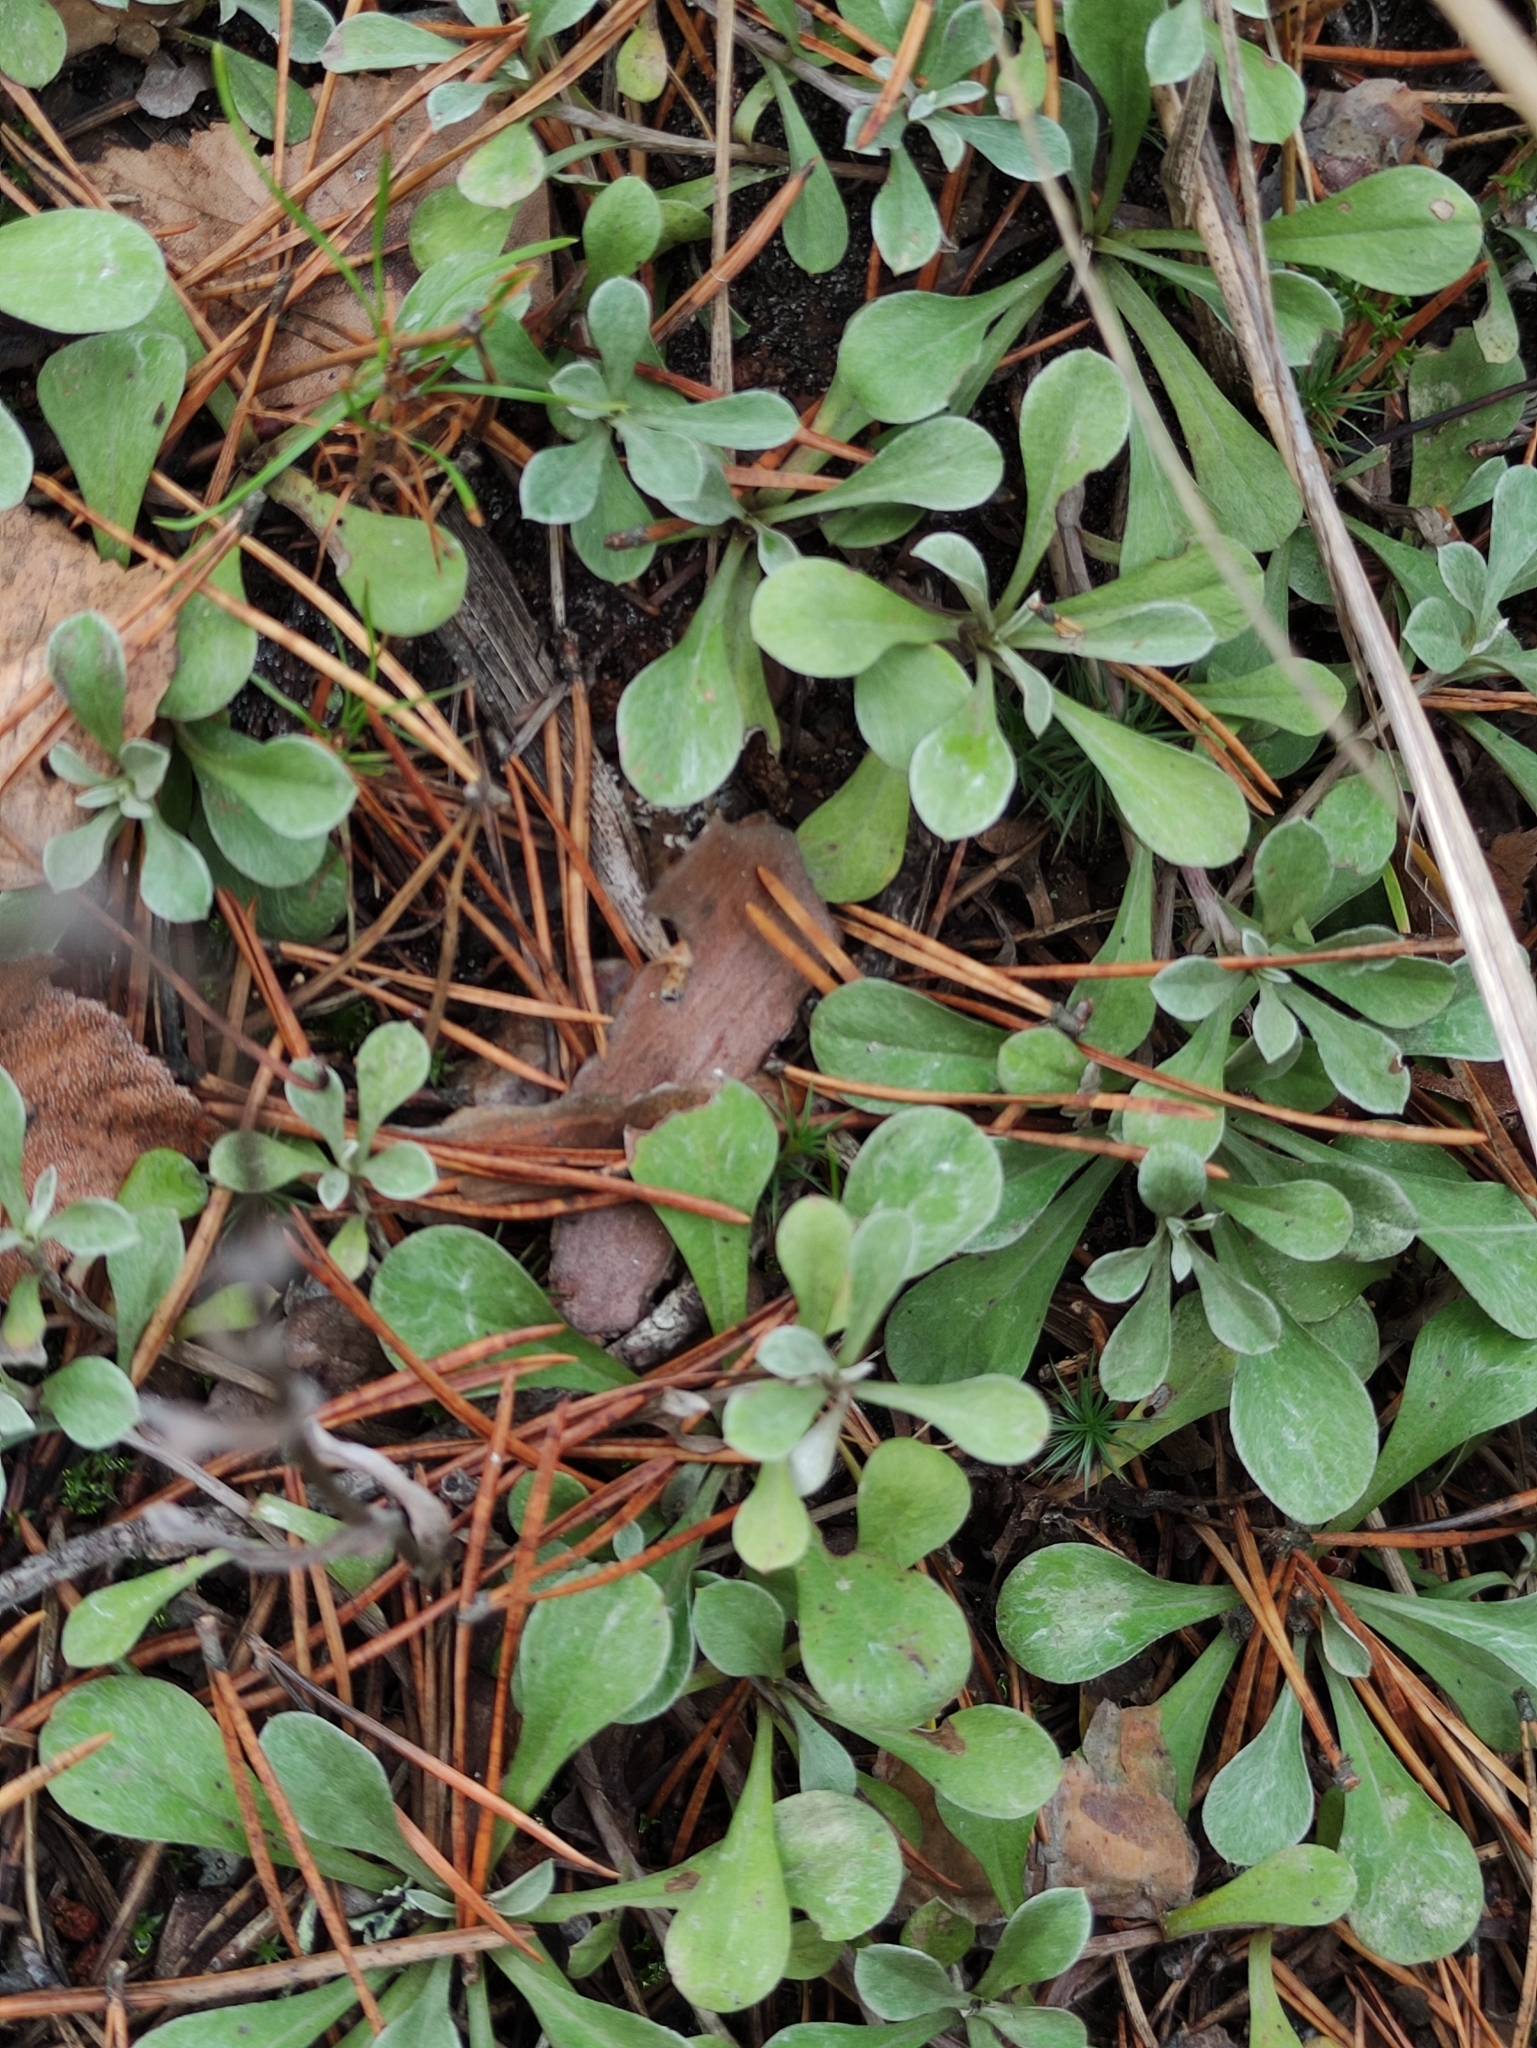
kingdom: Plantae
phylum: Tracheophyta
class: Magnoliopsida
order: Asterales
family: Asteraceae
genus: Antennaria
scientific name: Antennaria dioica
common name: Mountain everlasting
